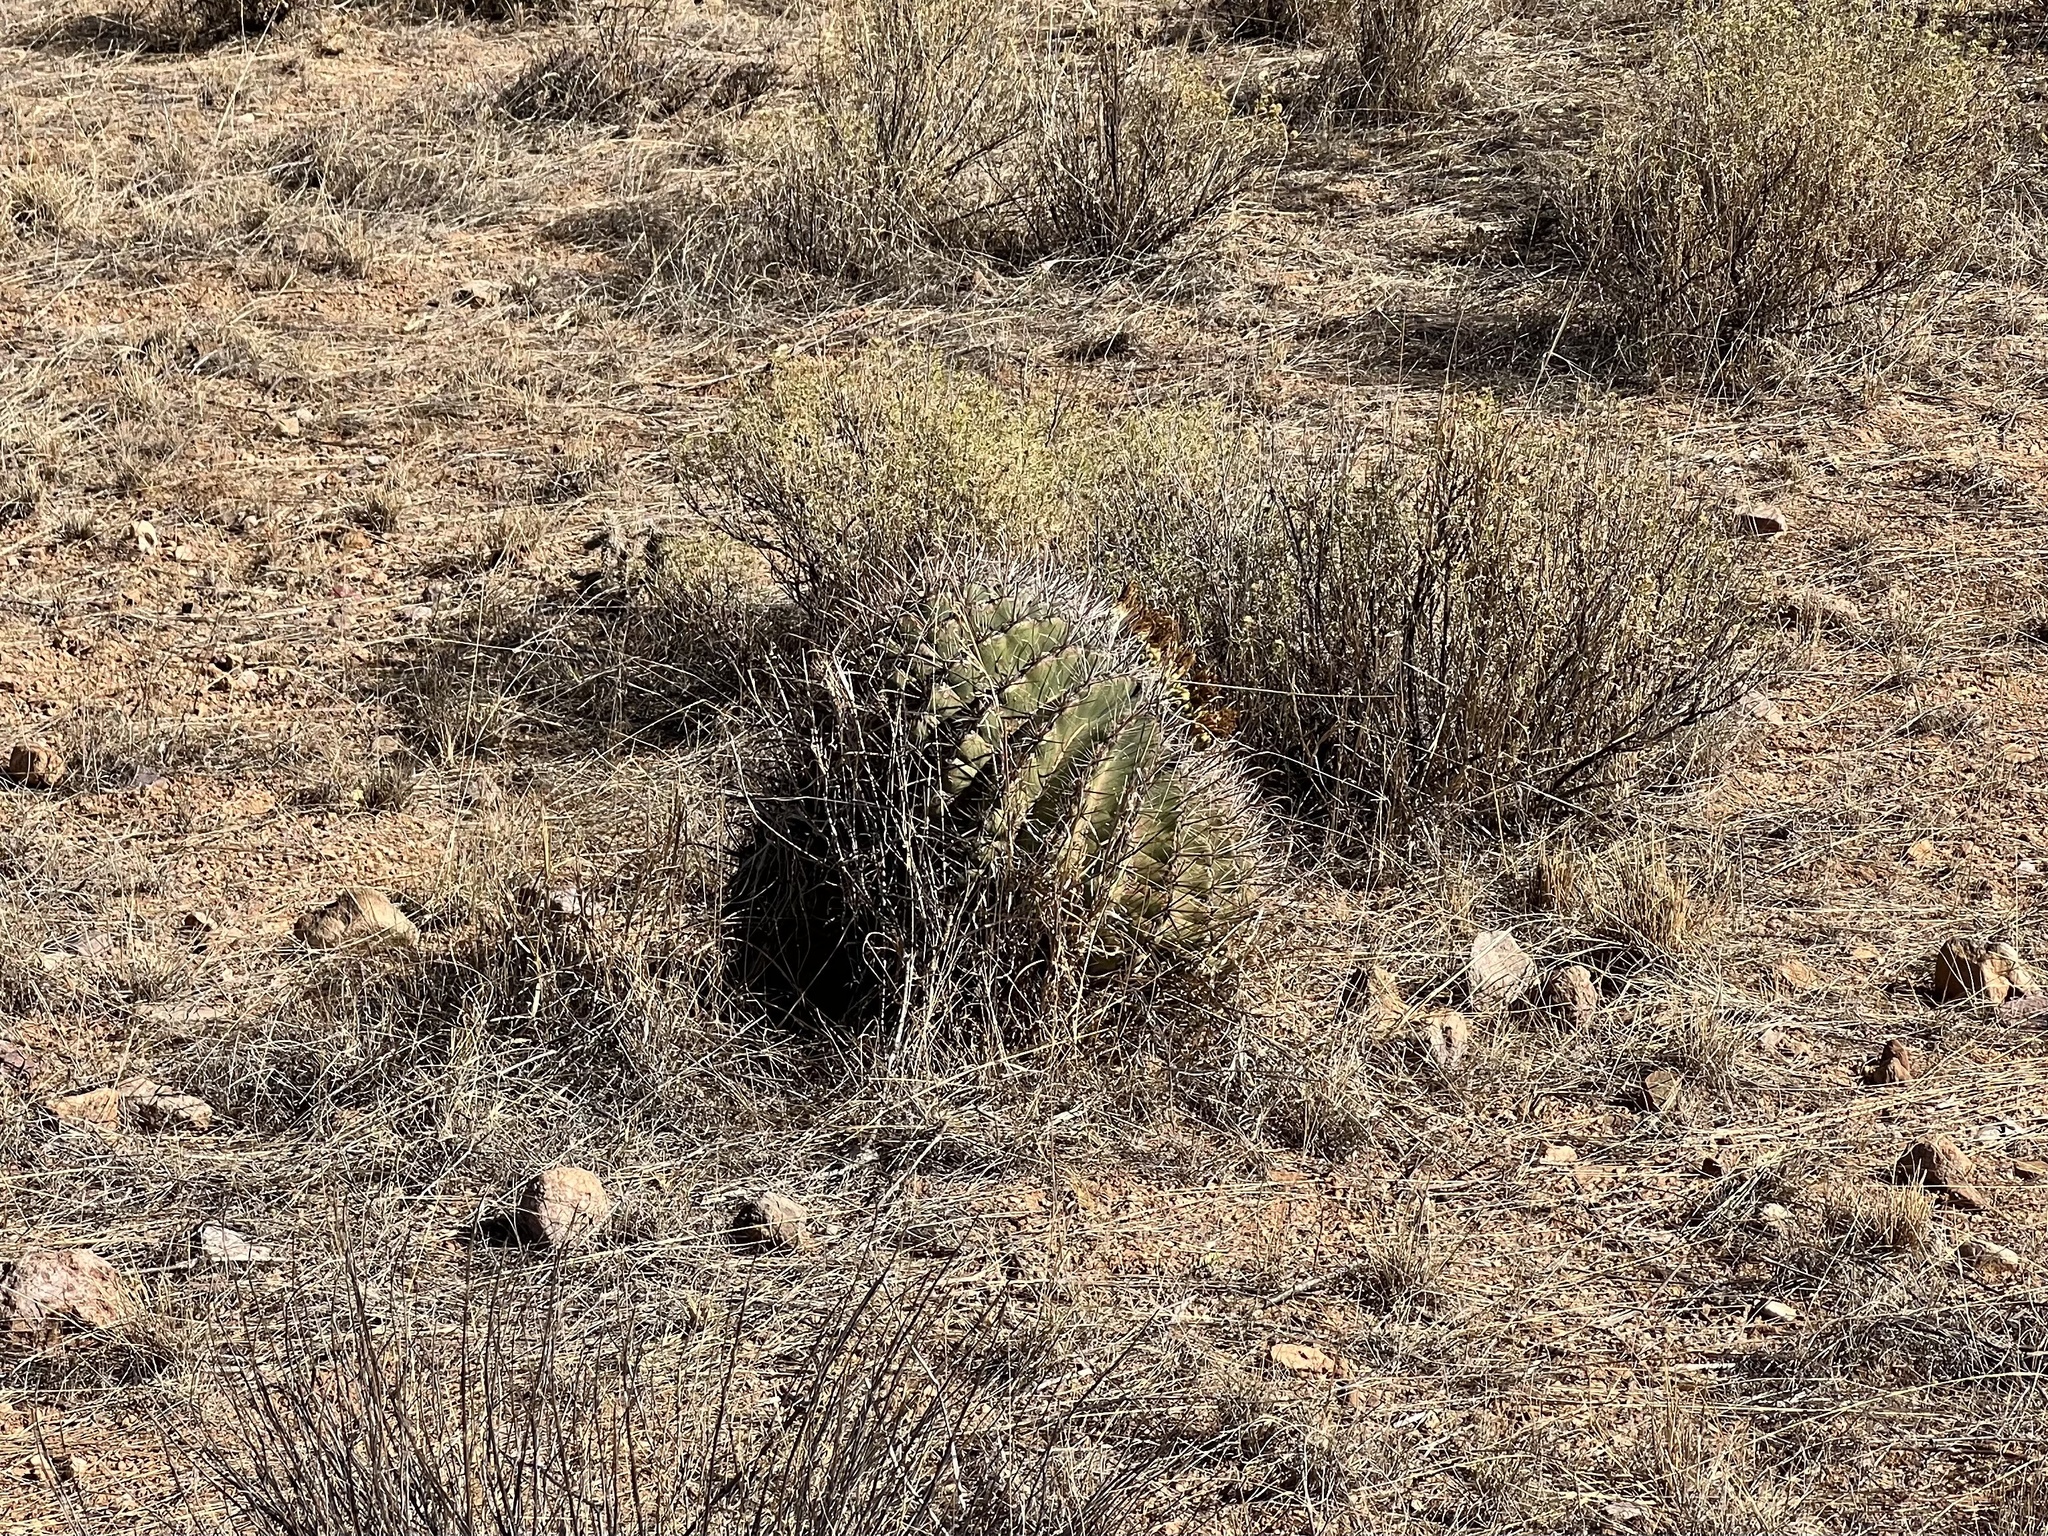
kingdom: Plantae
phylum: Tracheophyta
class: Magnoliopsida
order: Caryophyllales
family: Cactaceae
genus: Ferocactus
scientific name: Ferocactus wislizeni
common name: Candy barrel cactus
